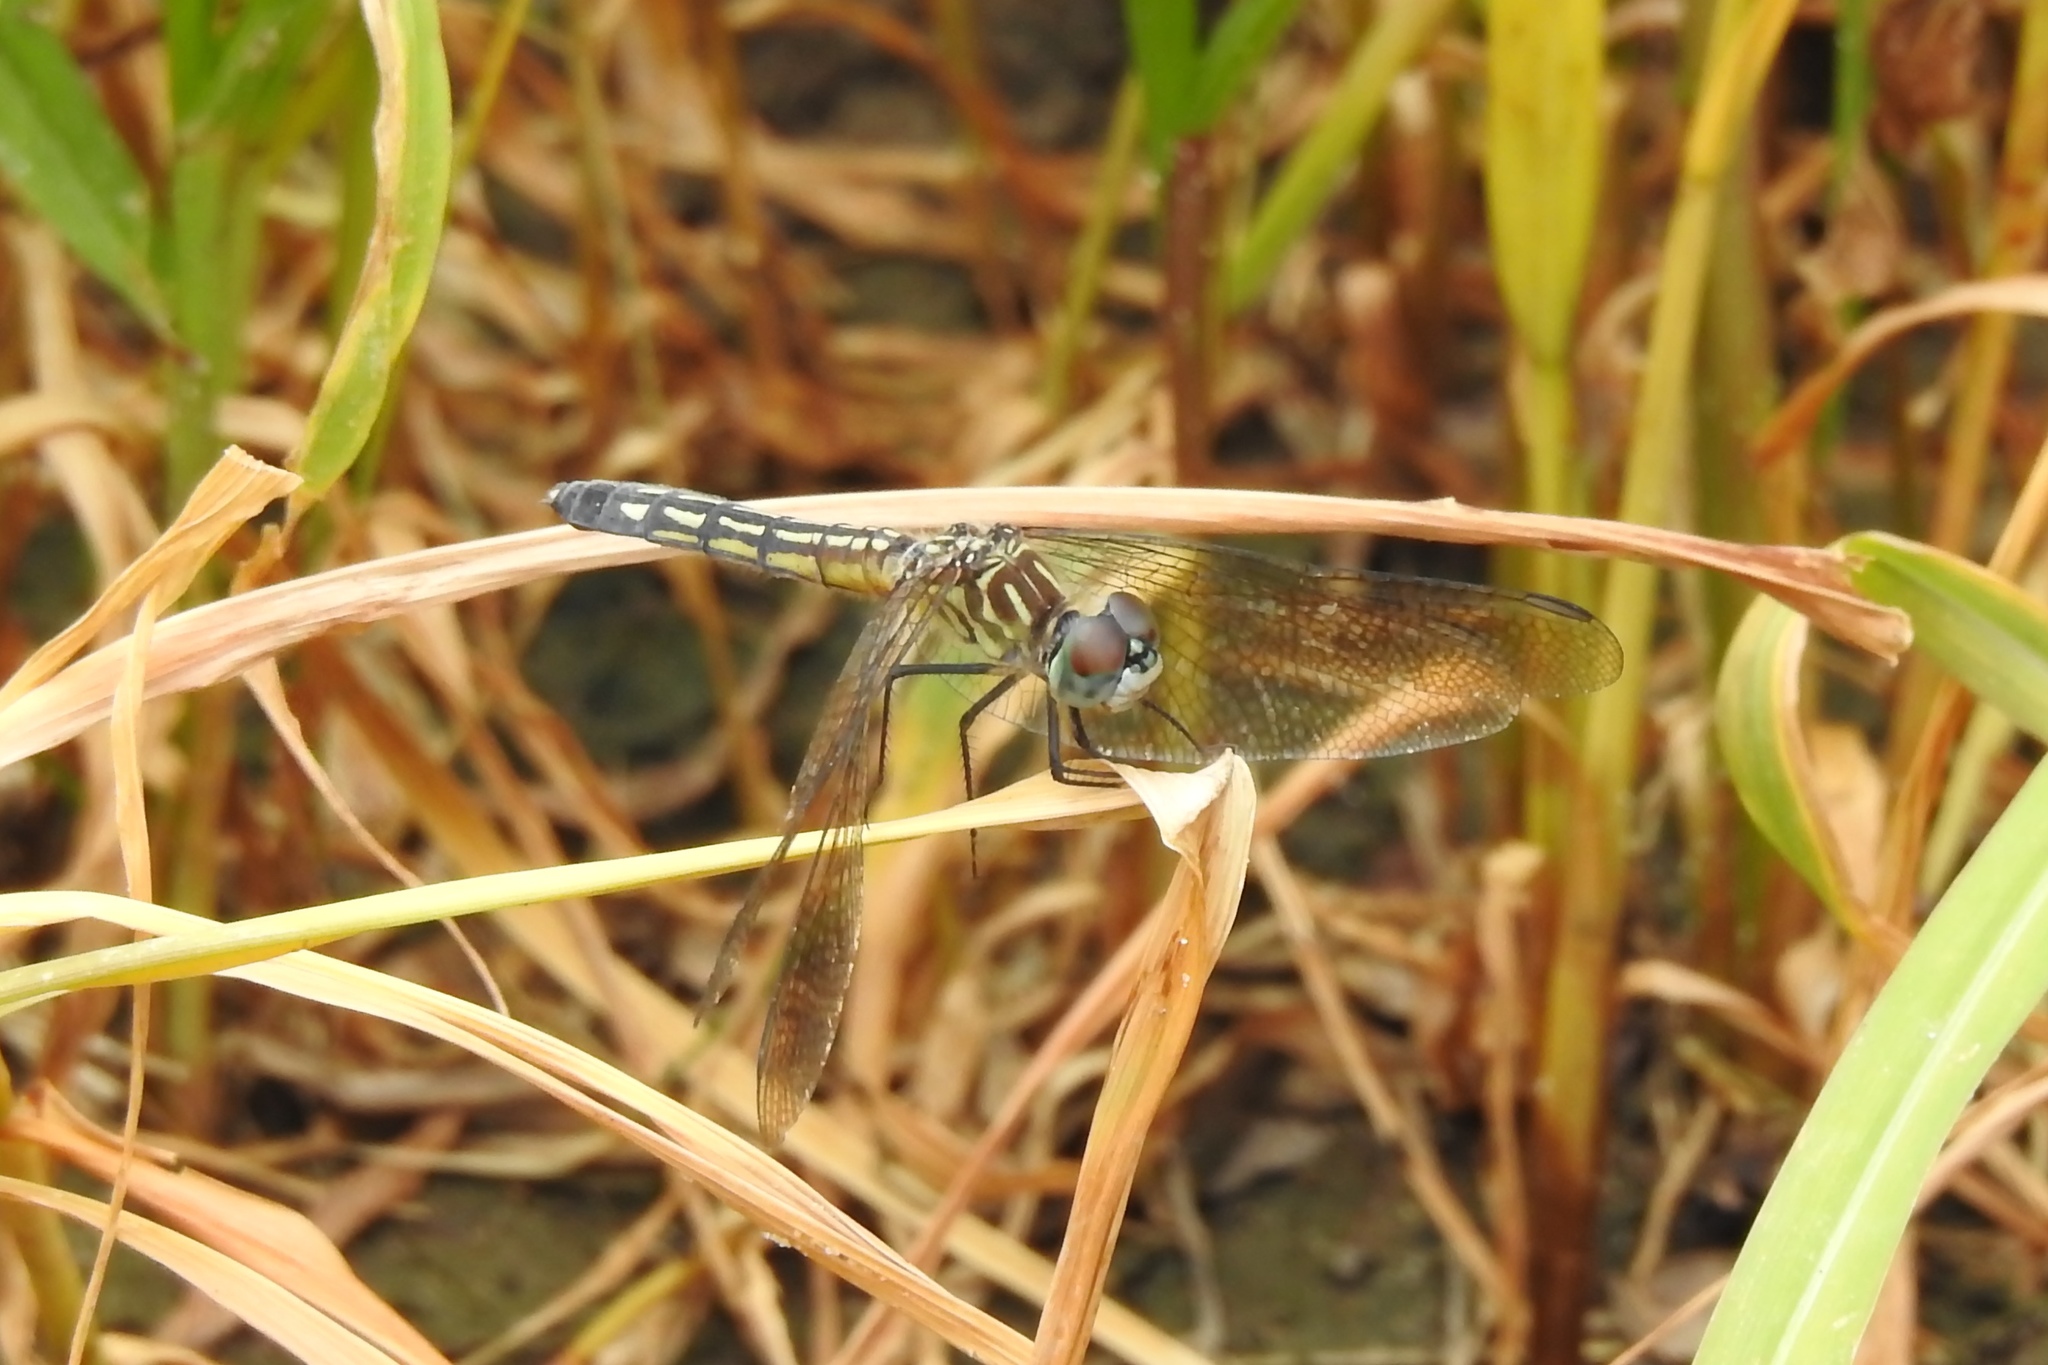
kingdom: Animalia
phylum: Arthropoda
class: Insecta
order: Odonata
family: Libellulidae
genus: Pachydiplax
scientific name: Pachydiplax longipennis
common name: Blue dasher
